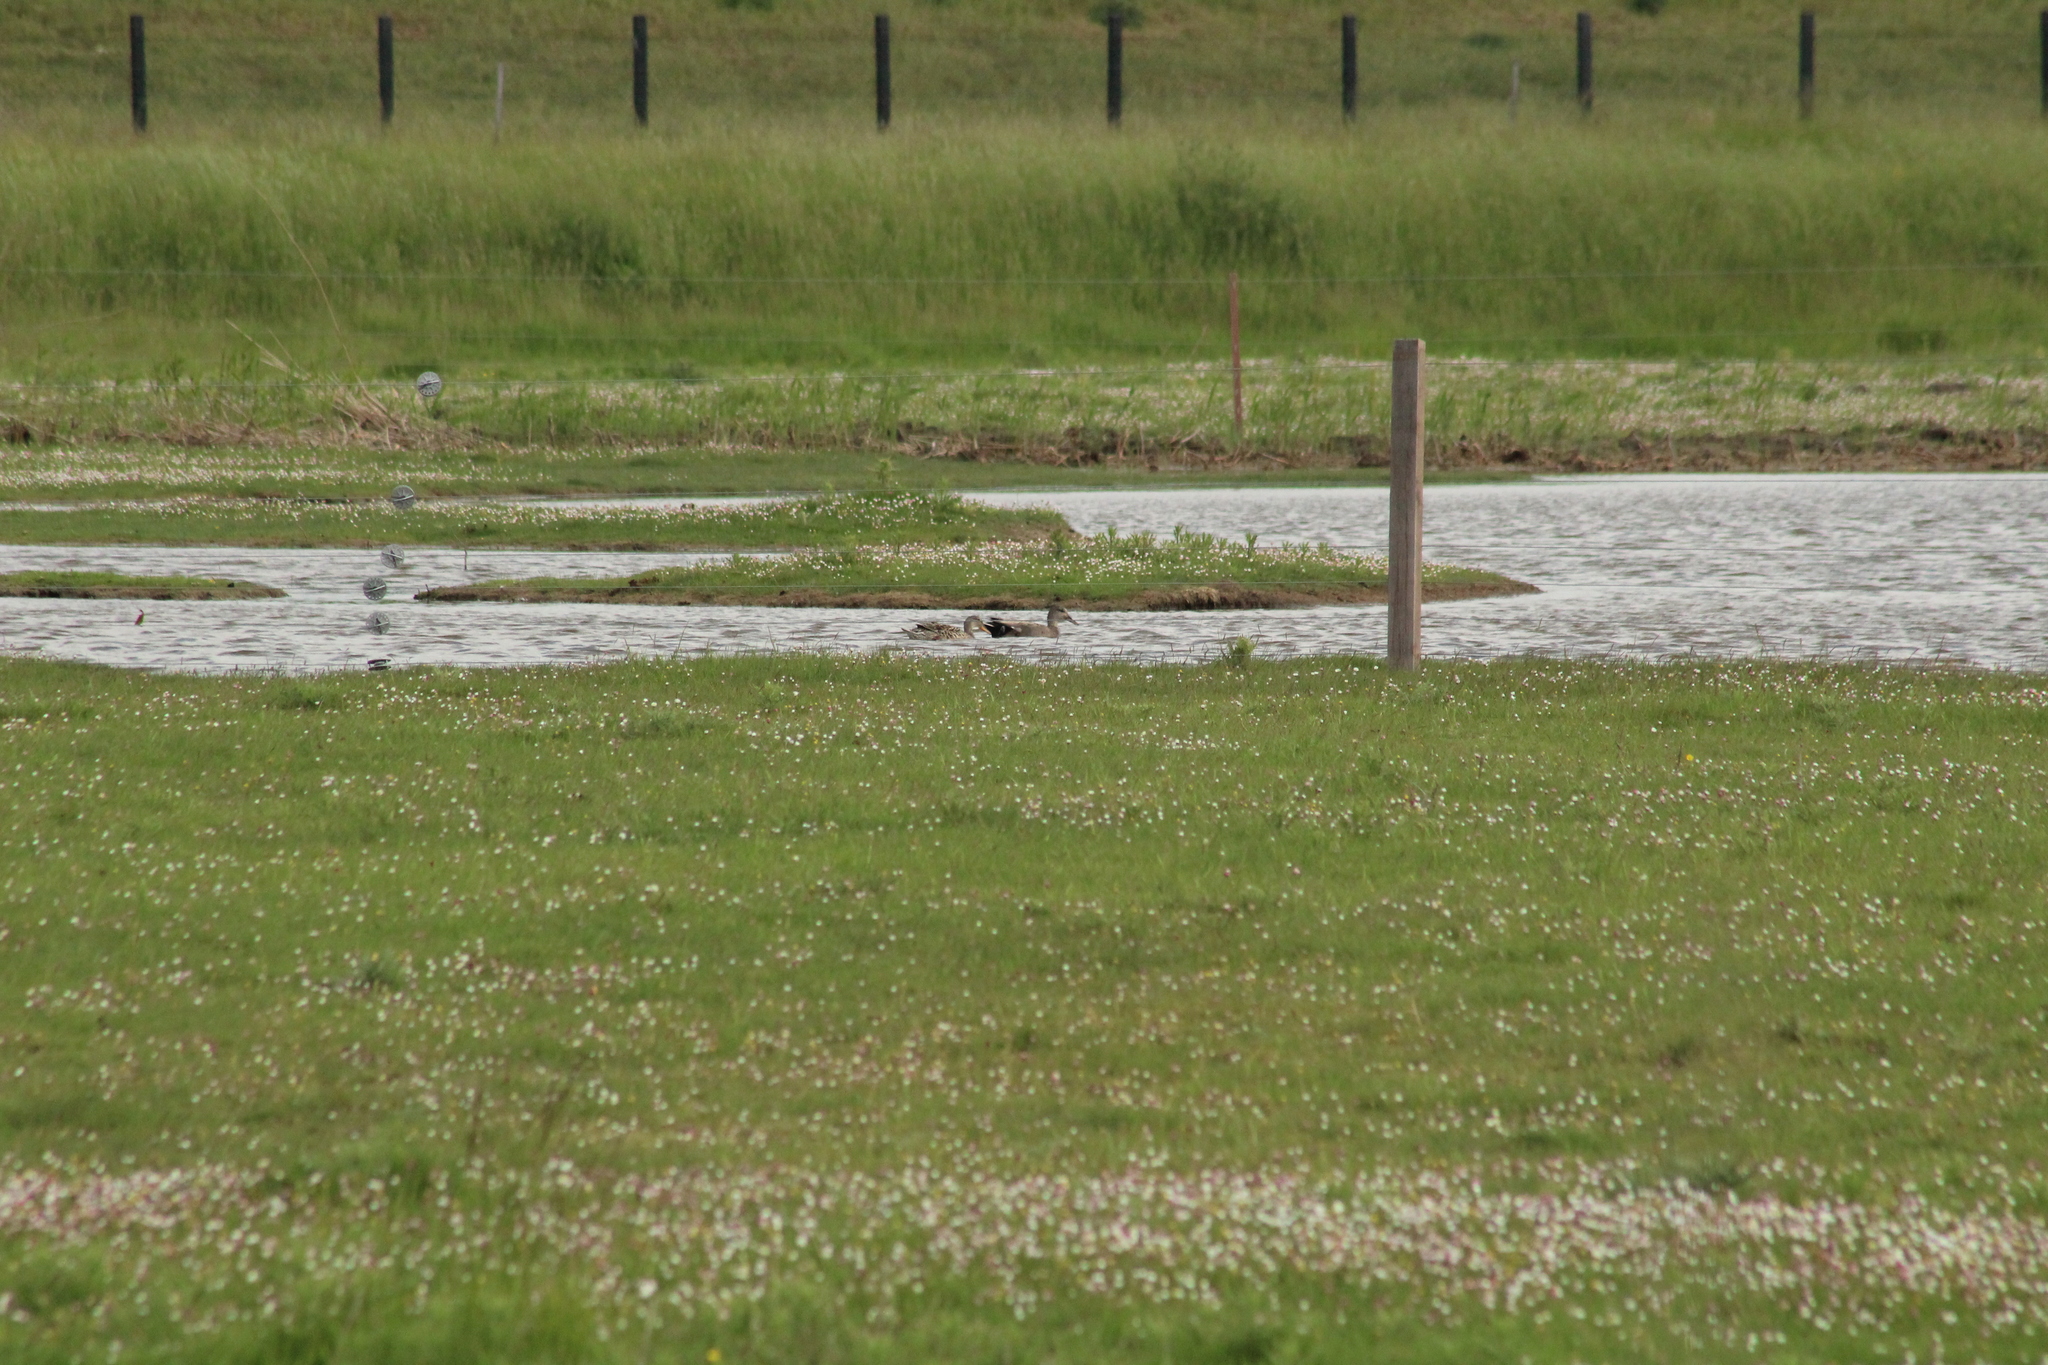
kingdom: Animalia
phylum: Chordata
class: Aves
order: Anseriformes
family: Anatidae
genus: Mareca
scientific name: Mareca strepera
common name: Gadwall
